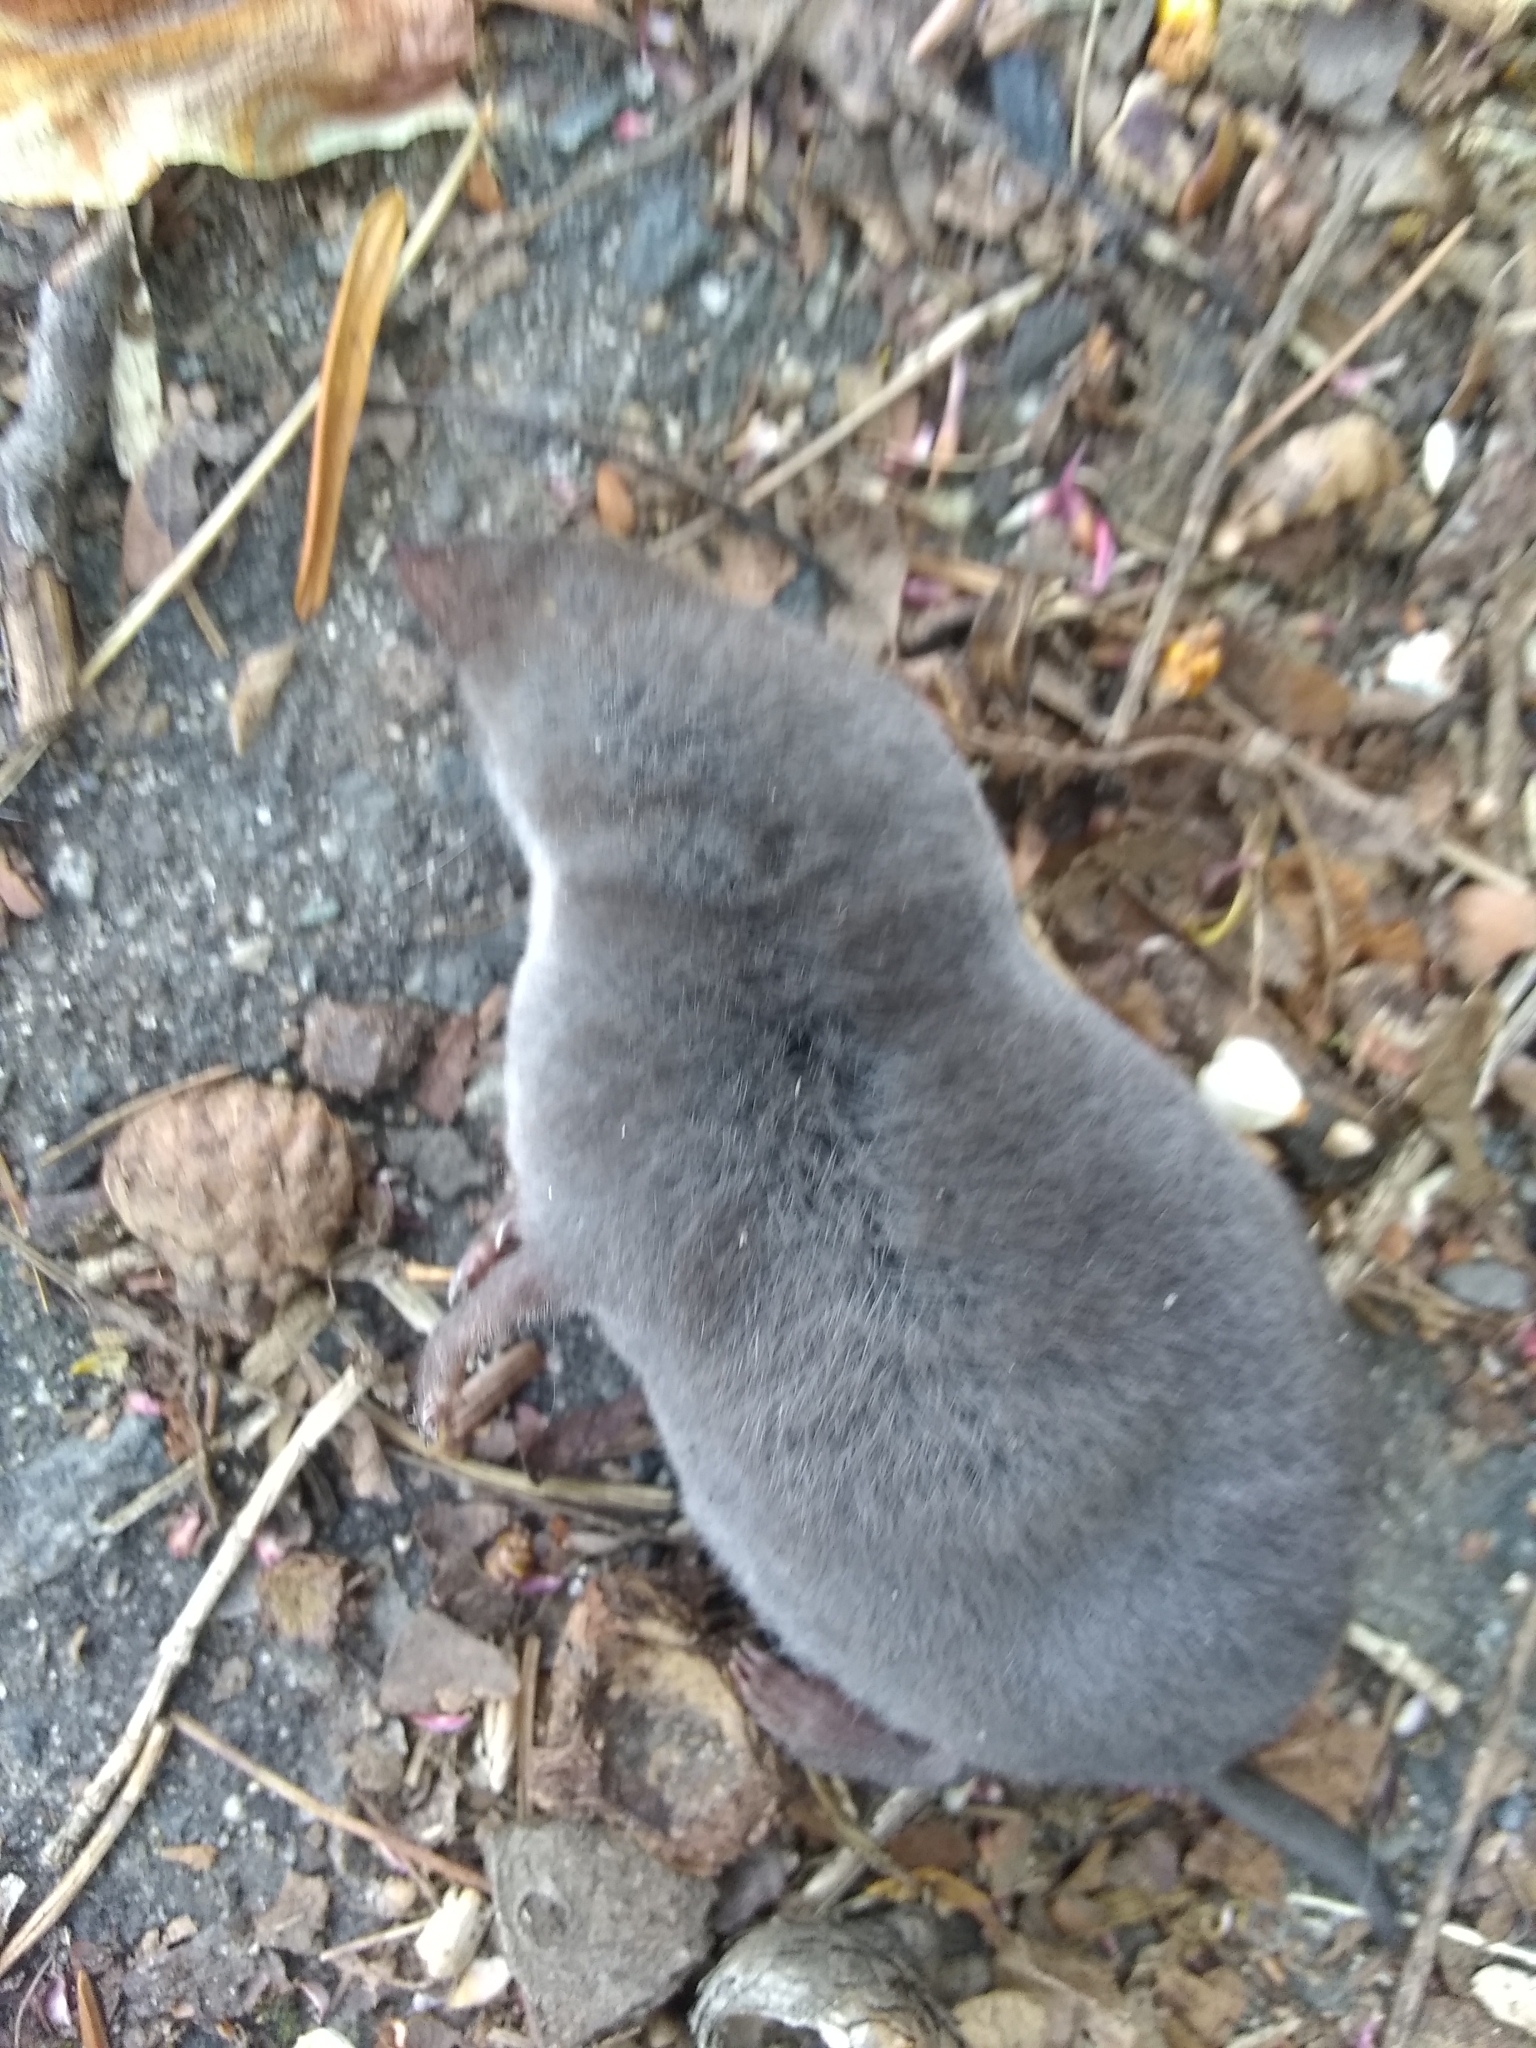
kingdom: Animalia
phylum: Chordata
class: Mammalia
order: Soricomorpha
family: Soricidae
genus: Blarina
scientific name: Blarina brevicauda
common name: Northern short-tailed shrew
